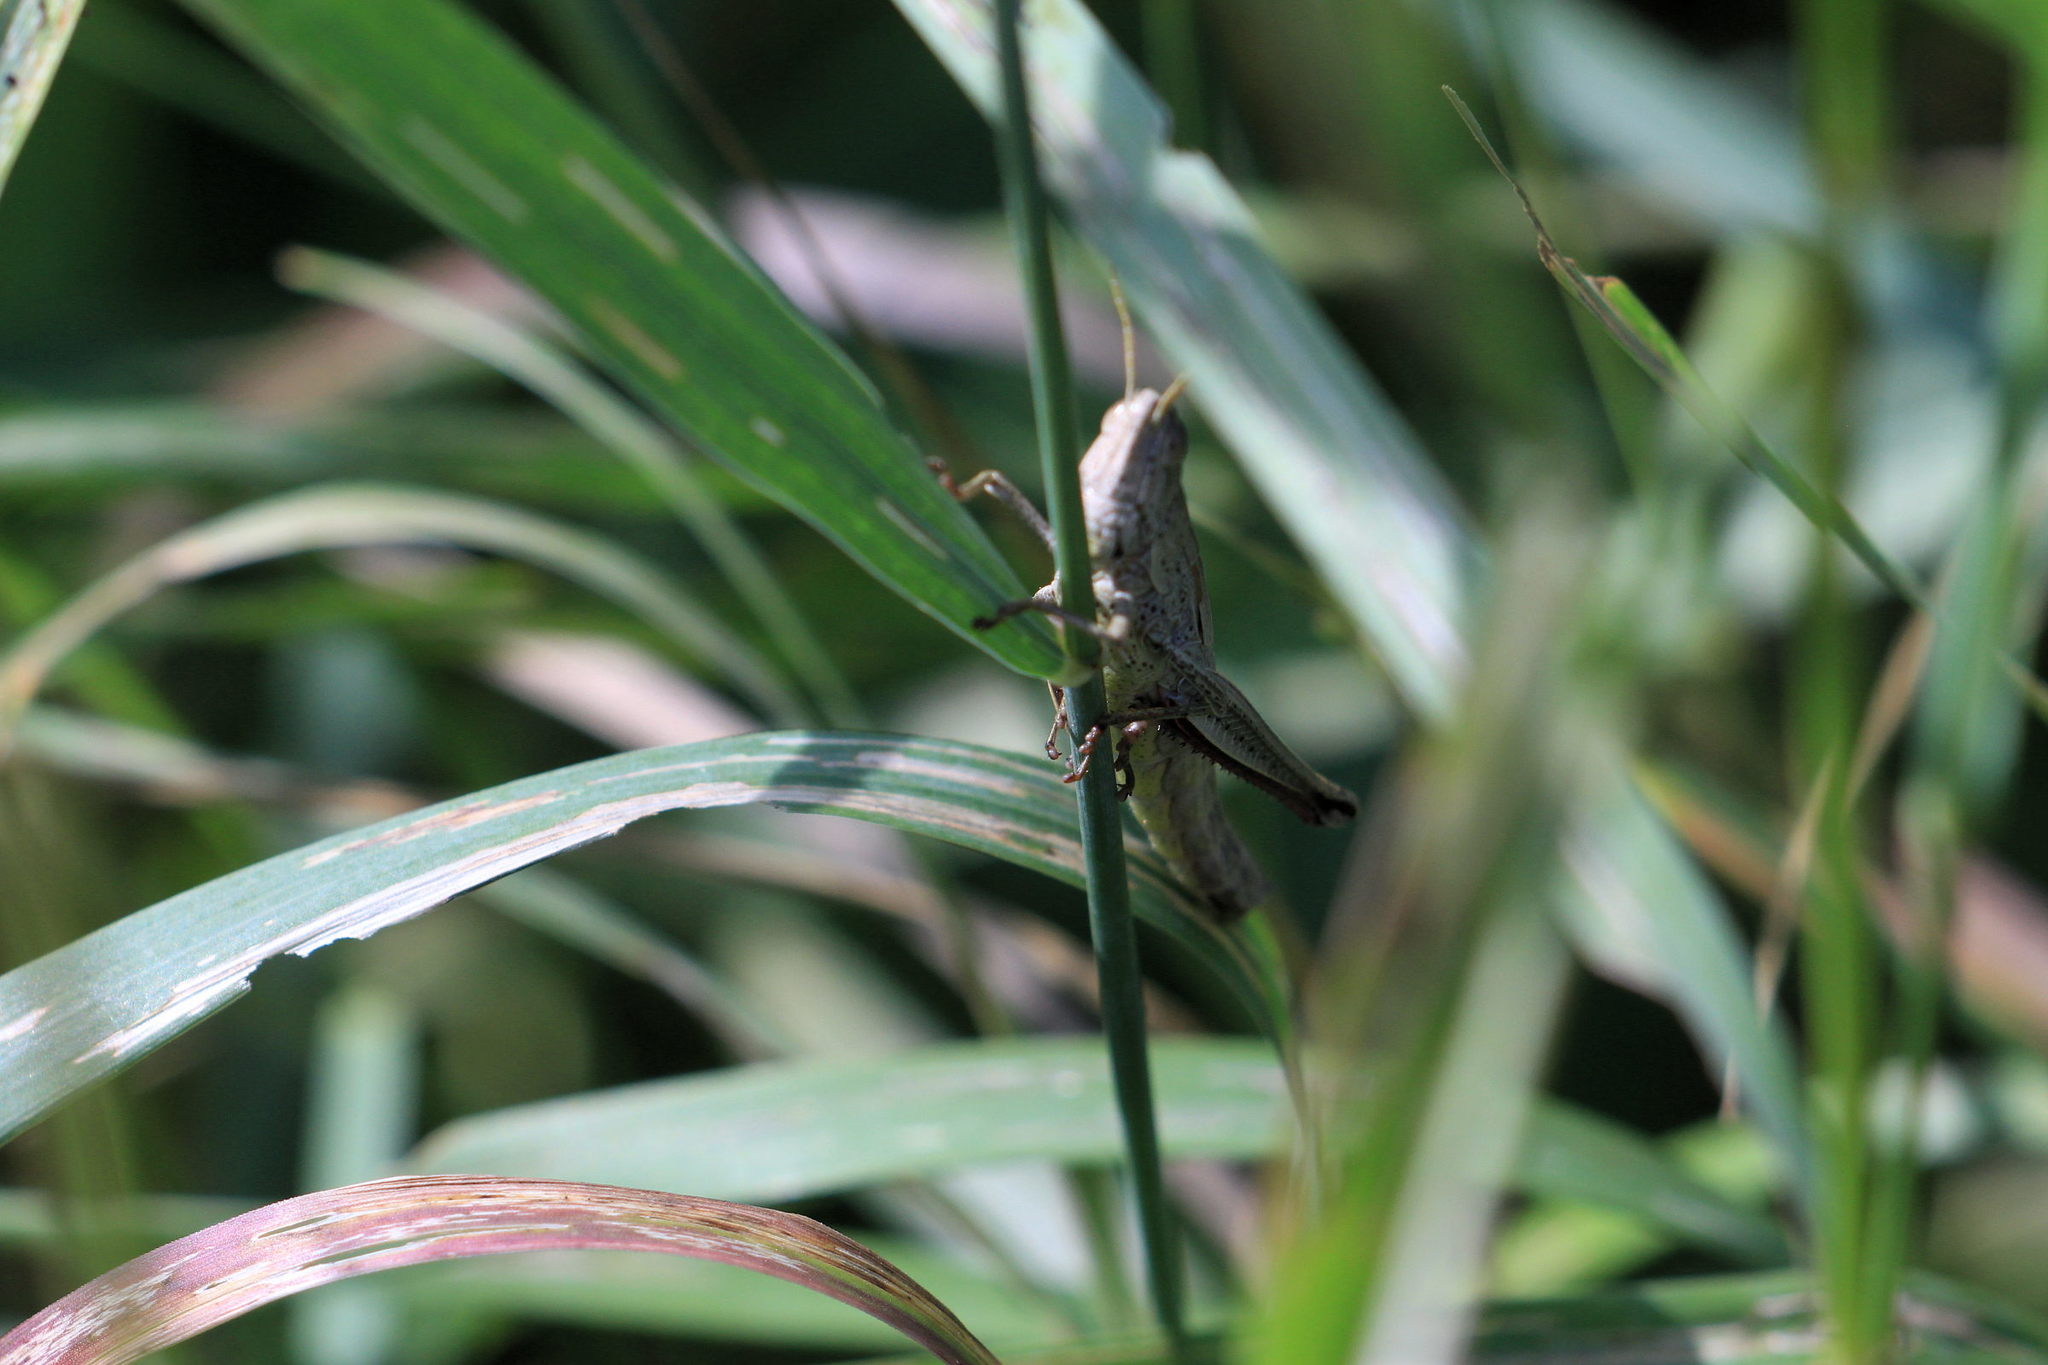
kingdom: Animalia
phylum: Arthropoda
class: Insecta
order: Orthoptera
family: Acrididae
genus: Chrysochraon
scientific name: Chrysochraon dispar
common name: Large gold grasshopper
